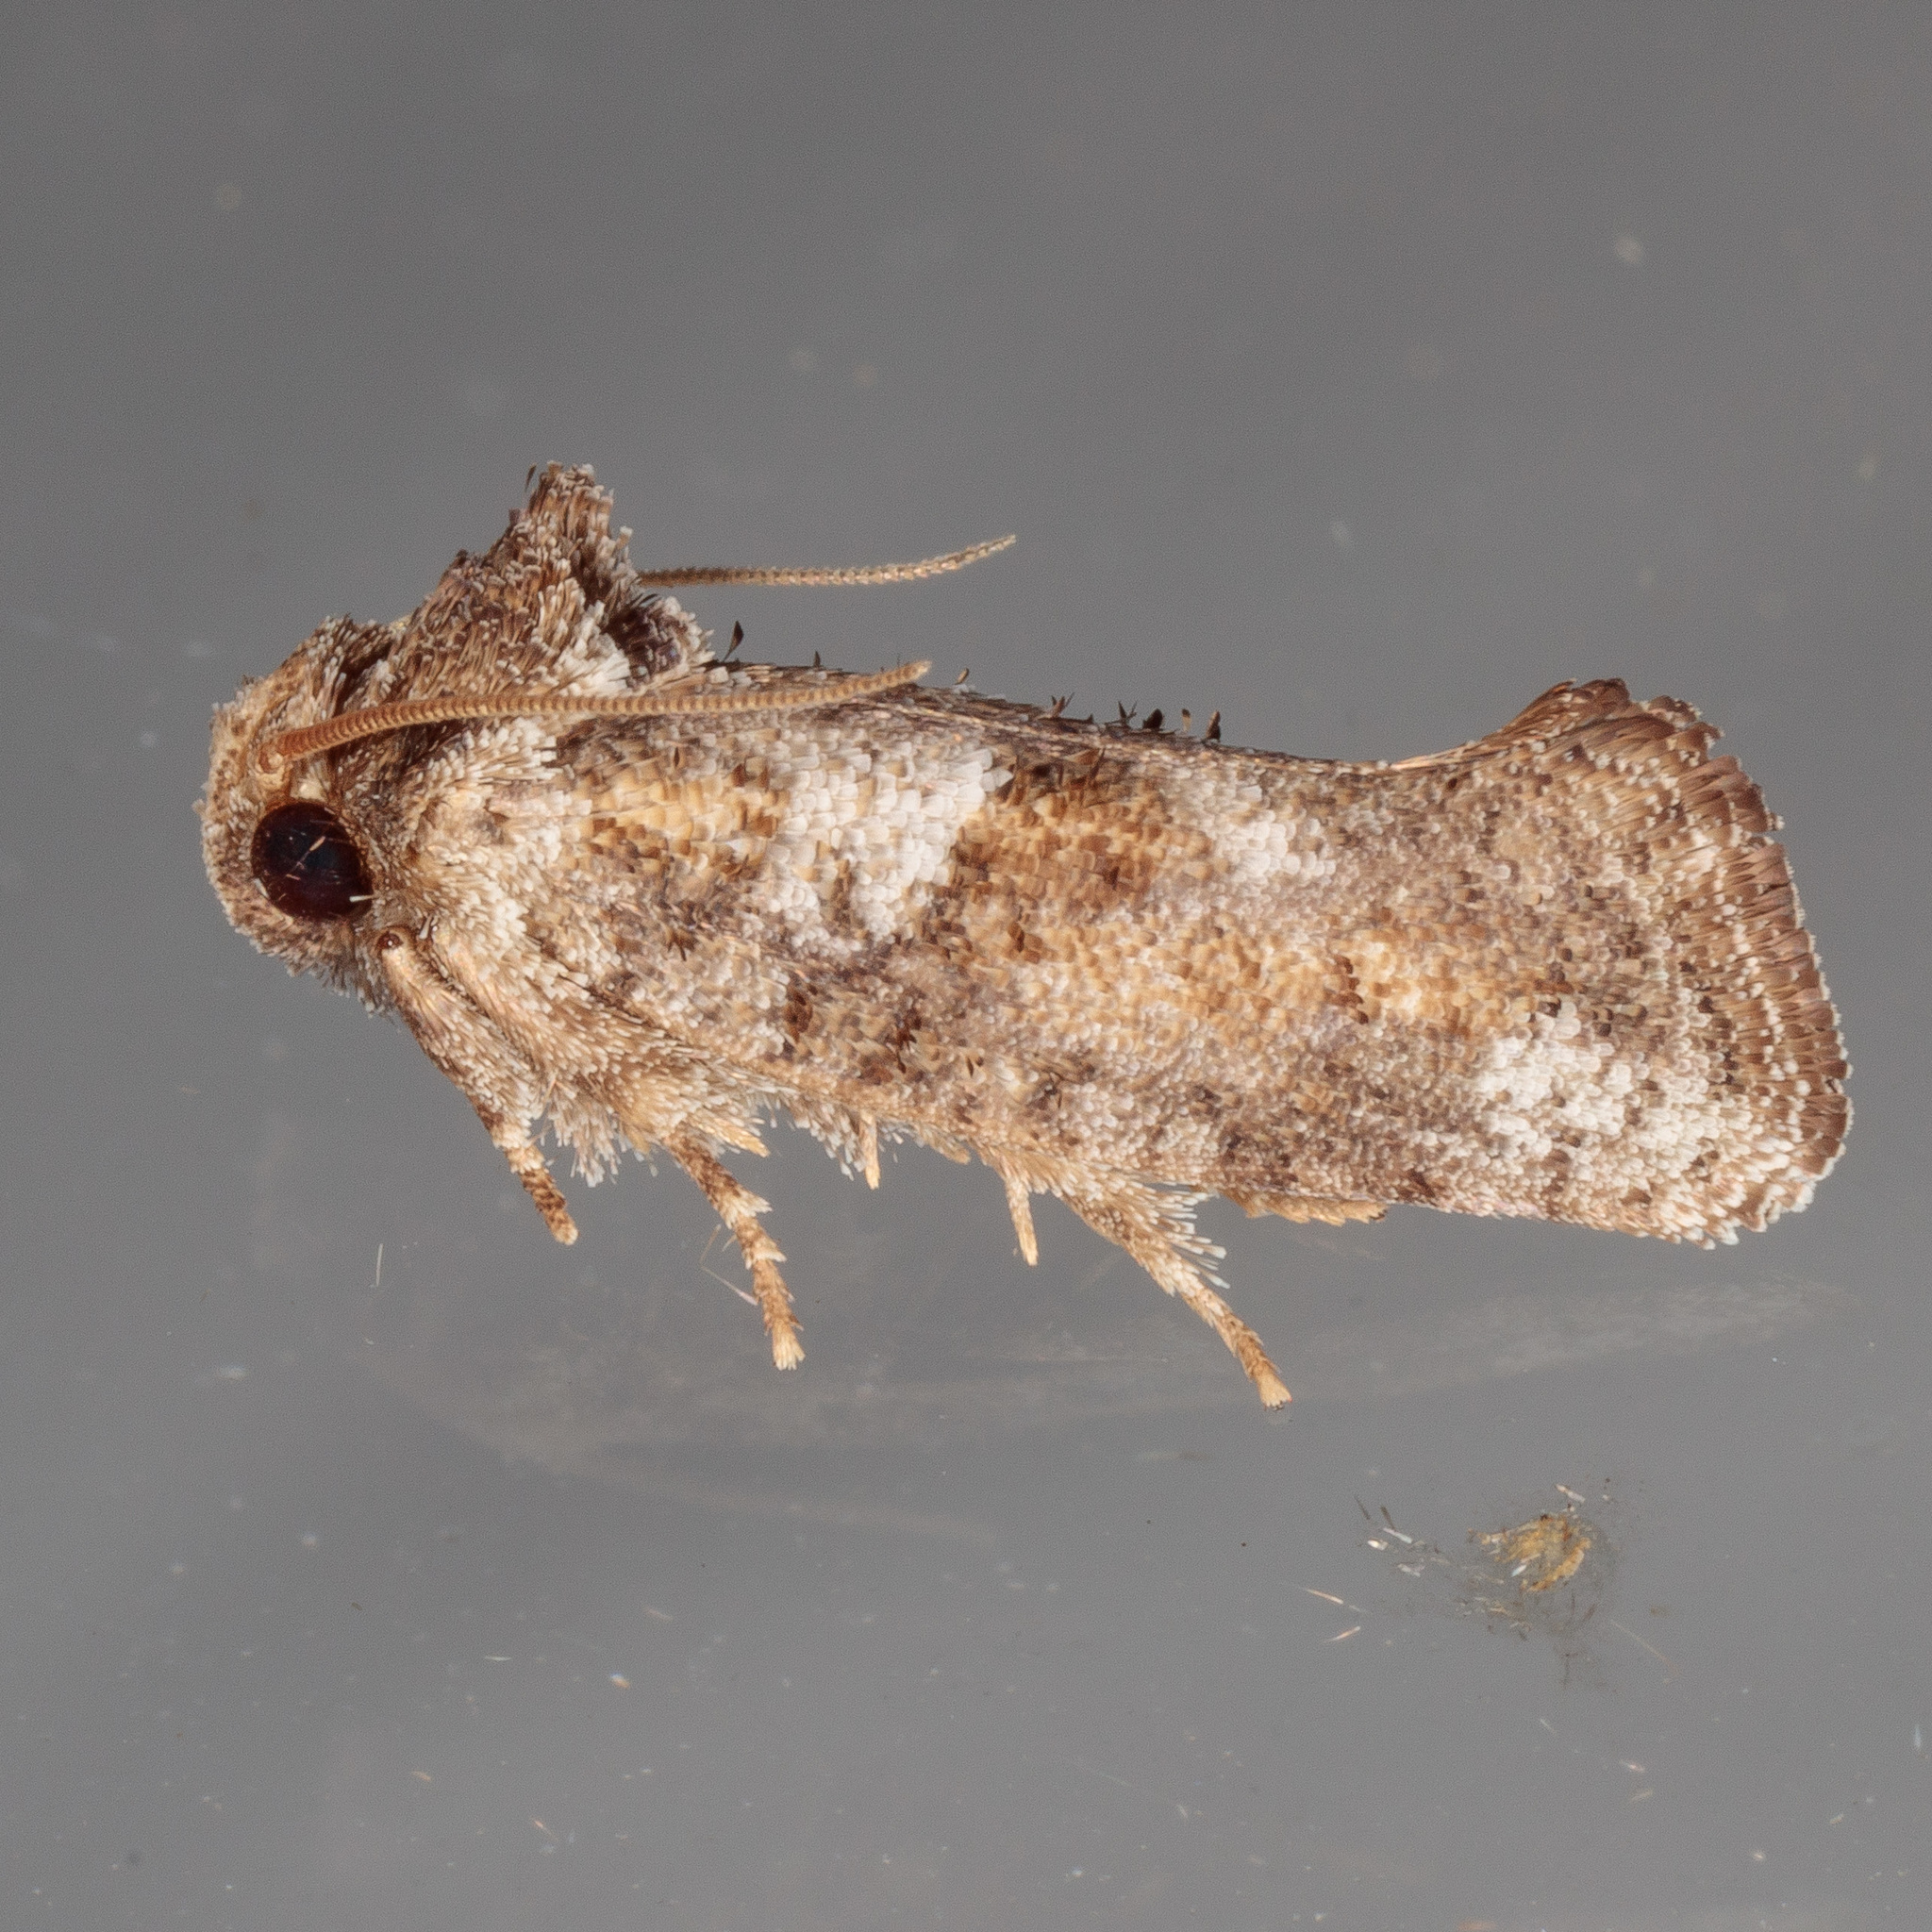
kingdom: Animalia
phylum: Arthropoda
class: Insecta
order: Lepidoptera
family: Tineidae
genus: Acrolophus
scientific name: Acrolophus piger
